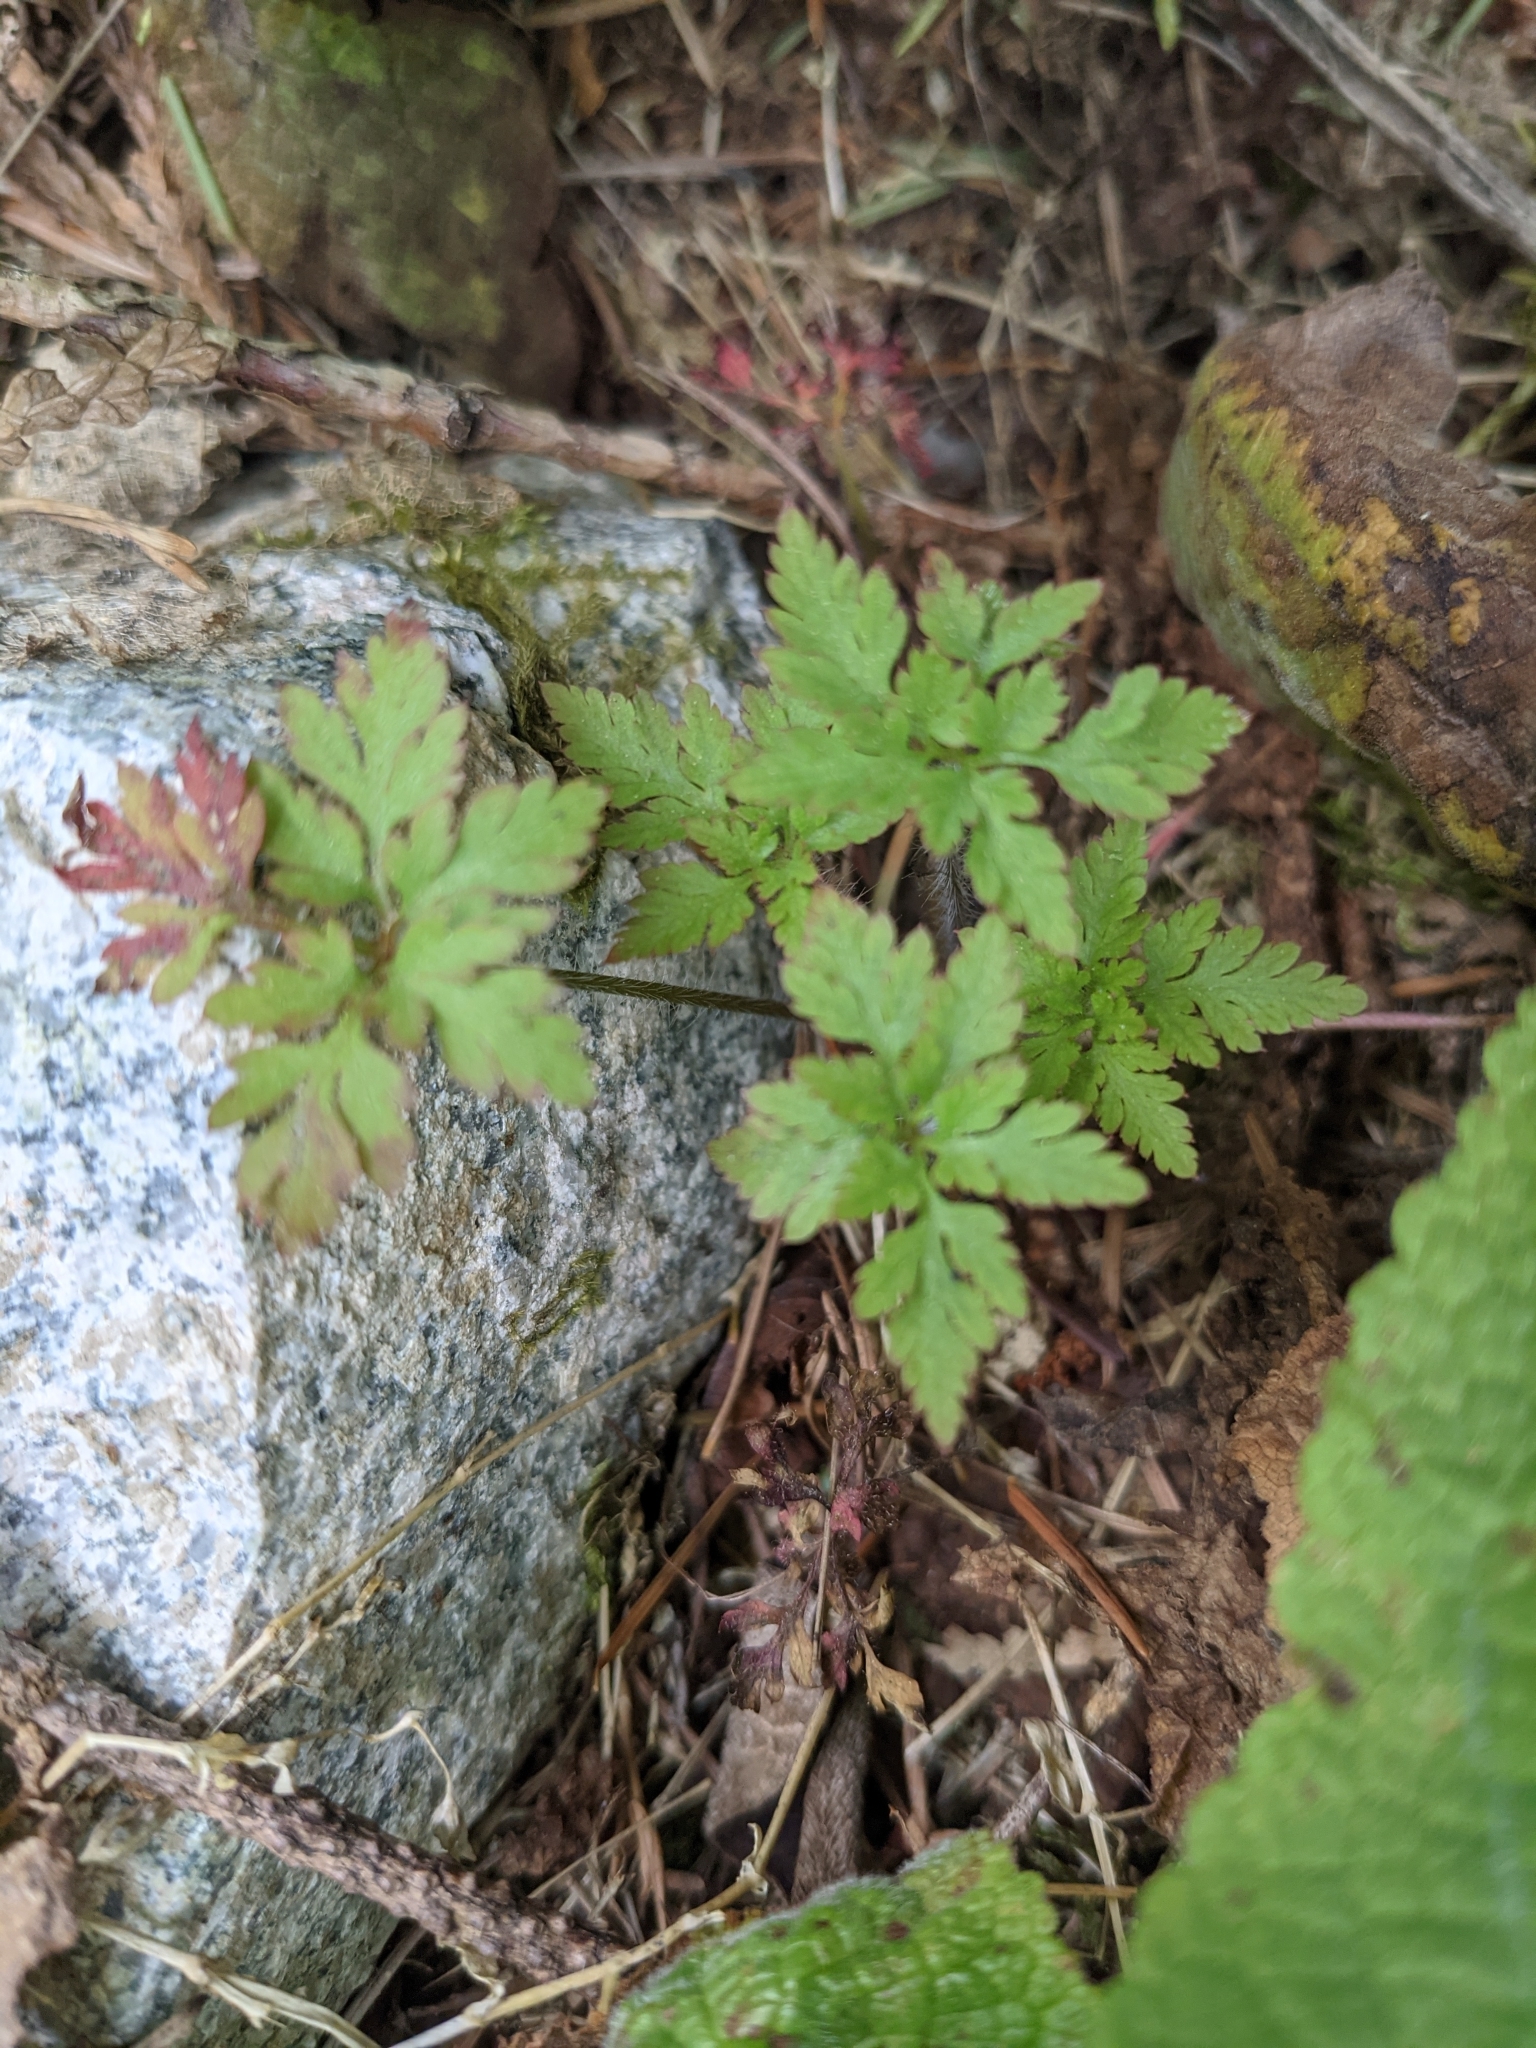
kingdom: Plantae
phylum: Tracheophyta
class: Magnoliopsida
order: Geraniales
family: Geraniaceae
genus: Geranium
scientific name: Geranium robertianum
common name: Herb-robert
